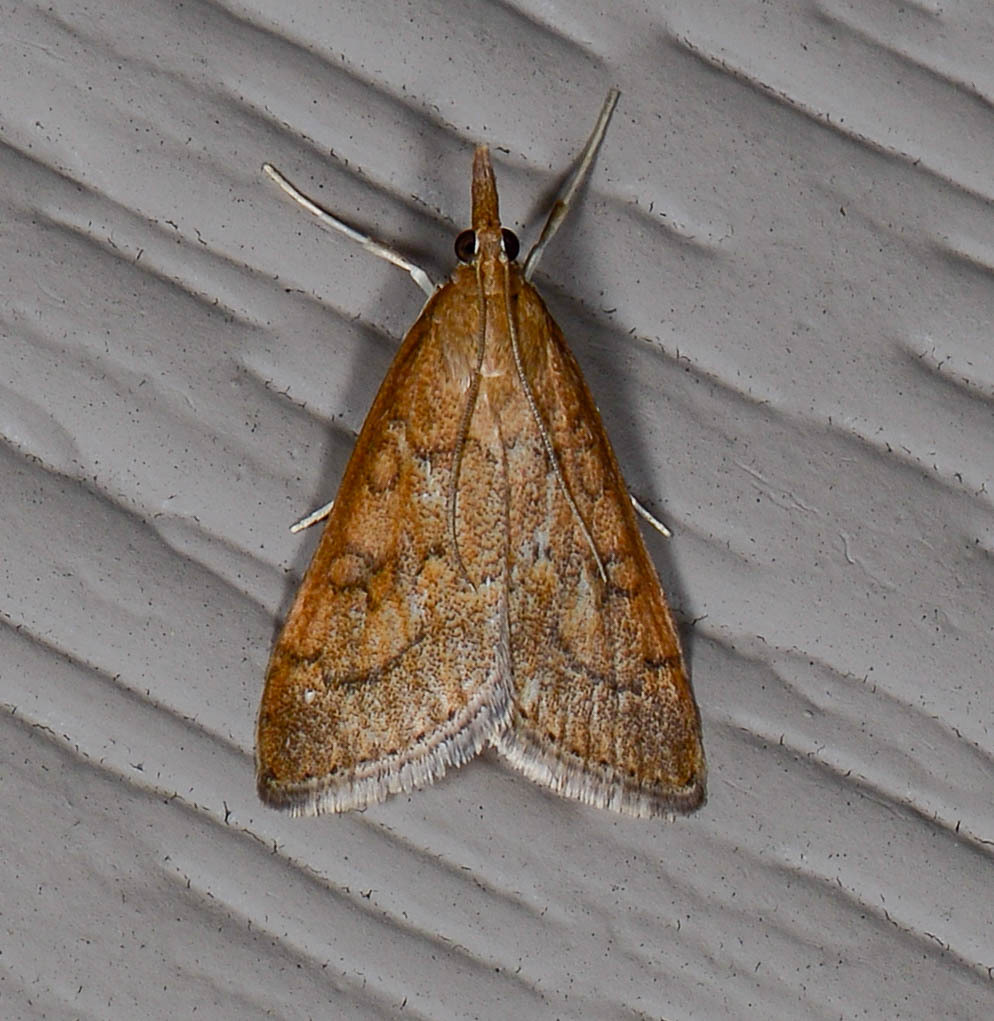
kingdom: Animalia
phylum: Arthropoda
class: Insecta
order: Lepidoptera
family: Crambidae
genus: Udea
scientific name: Udea rubigalis
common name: Celery leaftier moth
